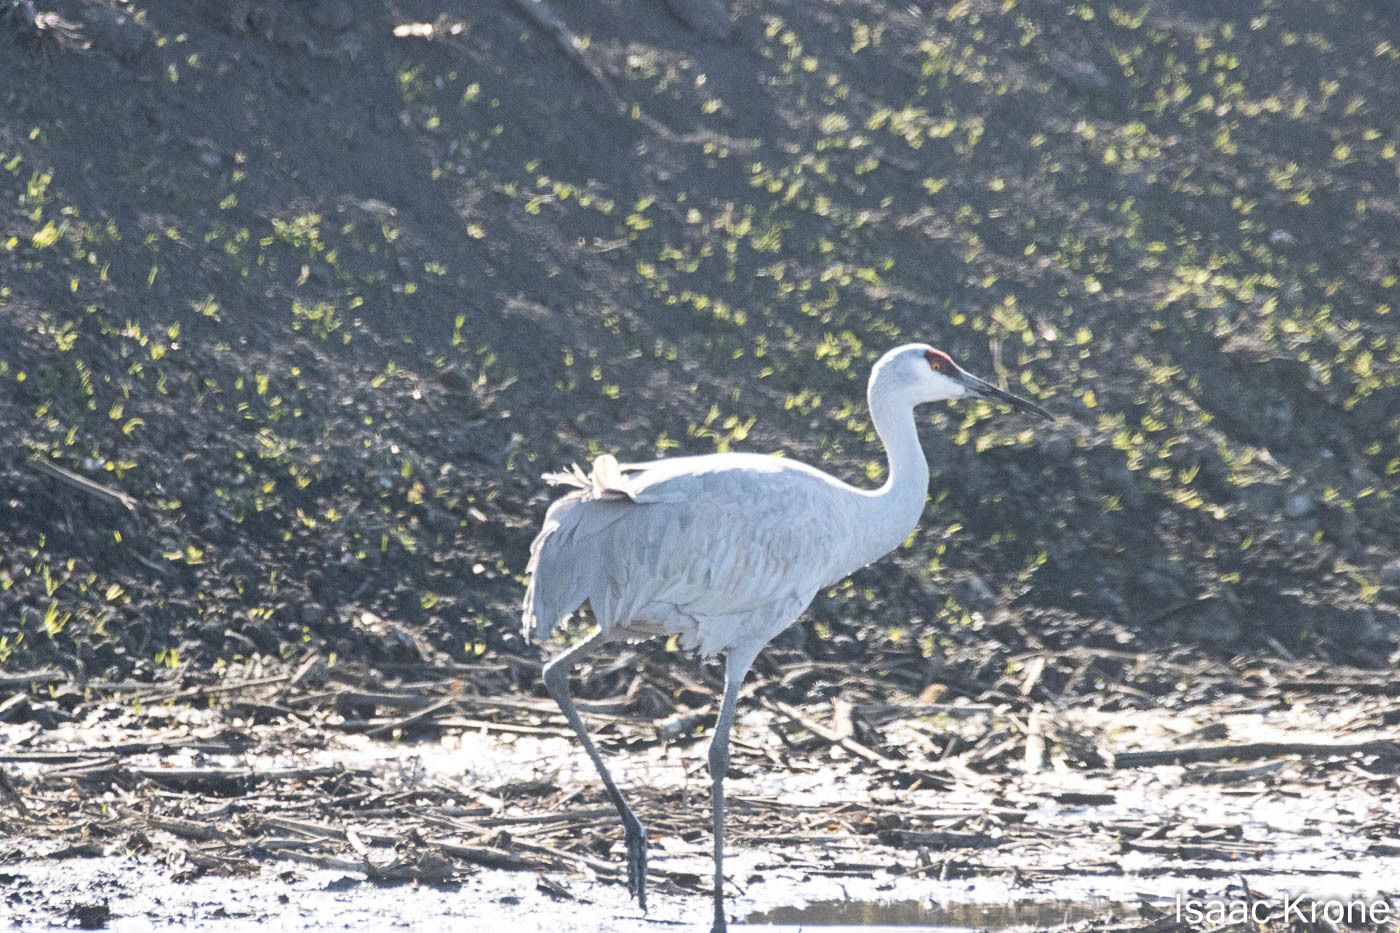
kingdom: Animalia
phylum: Chordata
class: Aves
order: Gruiformes
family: Gruidae
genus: Grus
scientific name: Grus canadensis
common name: Sandhill crane
